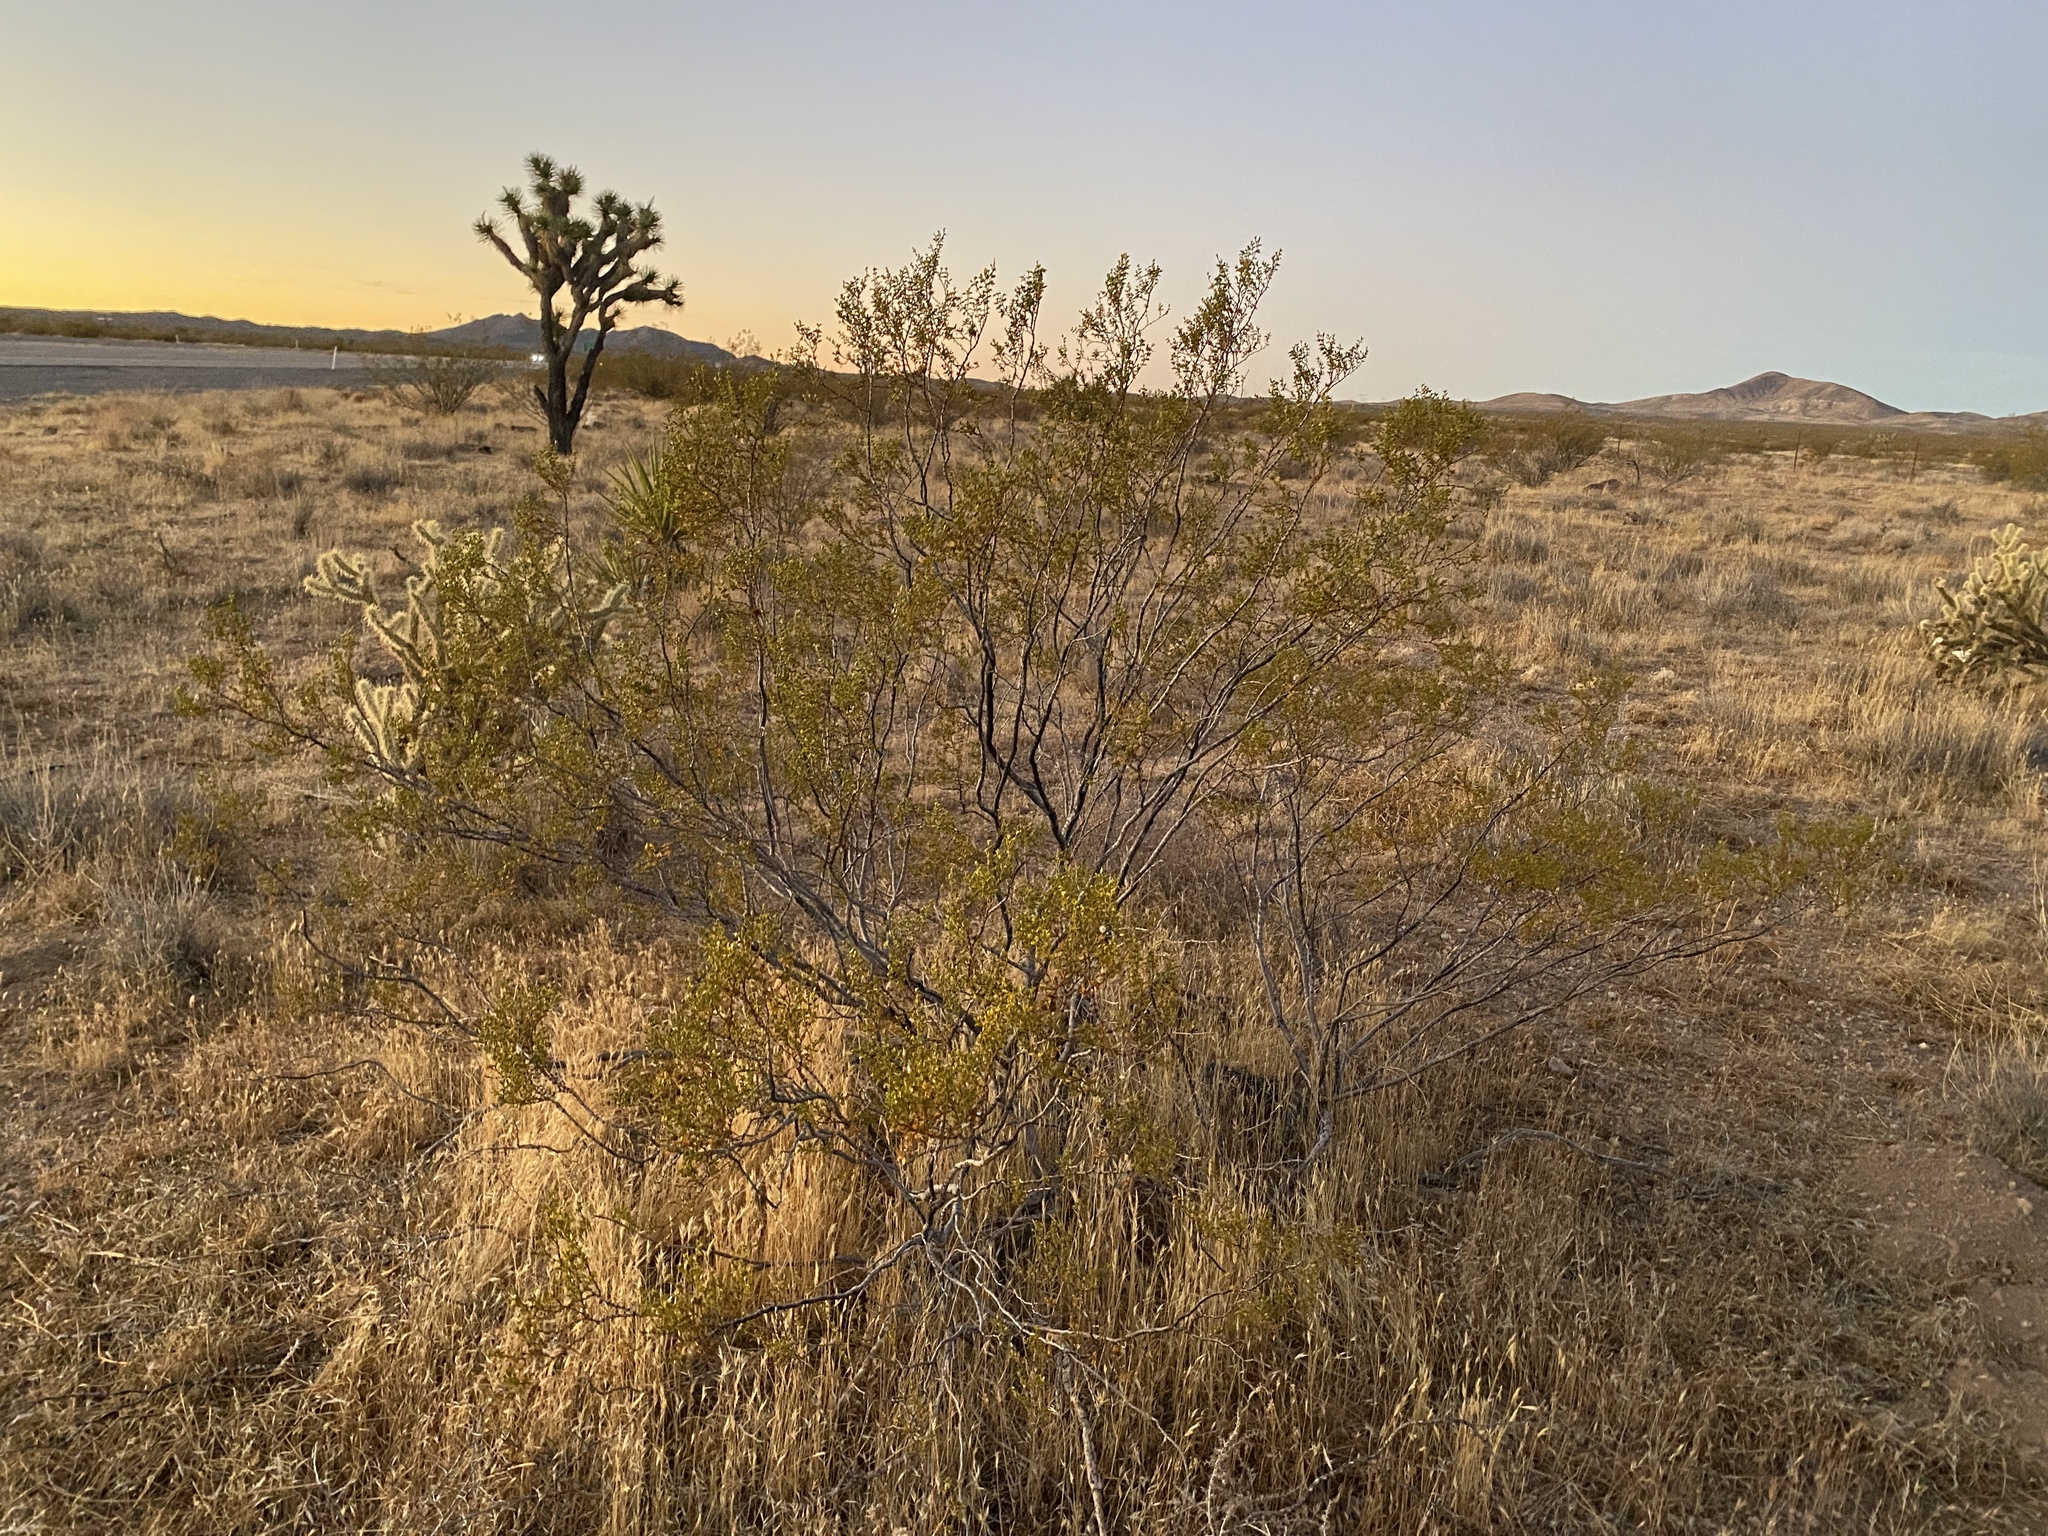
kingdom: Plantae
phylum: Tracheophyta
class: Magnoliopsida
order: Zygophyllales
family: Zygophyllaceae
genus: Larrea
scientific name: Larrea tridentata
